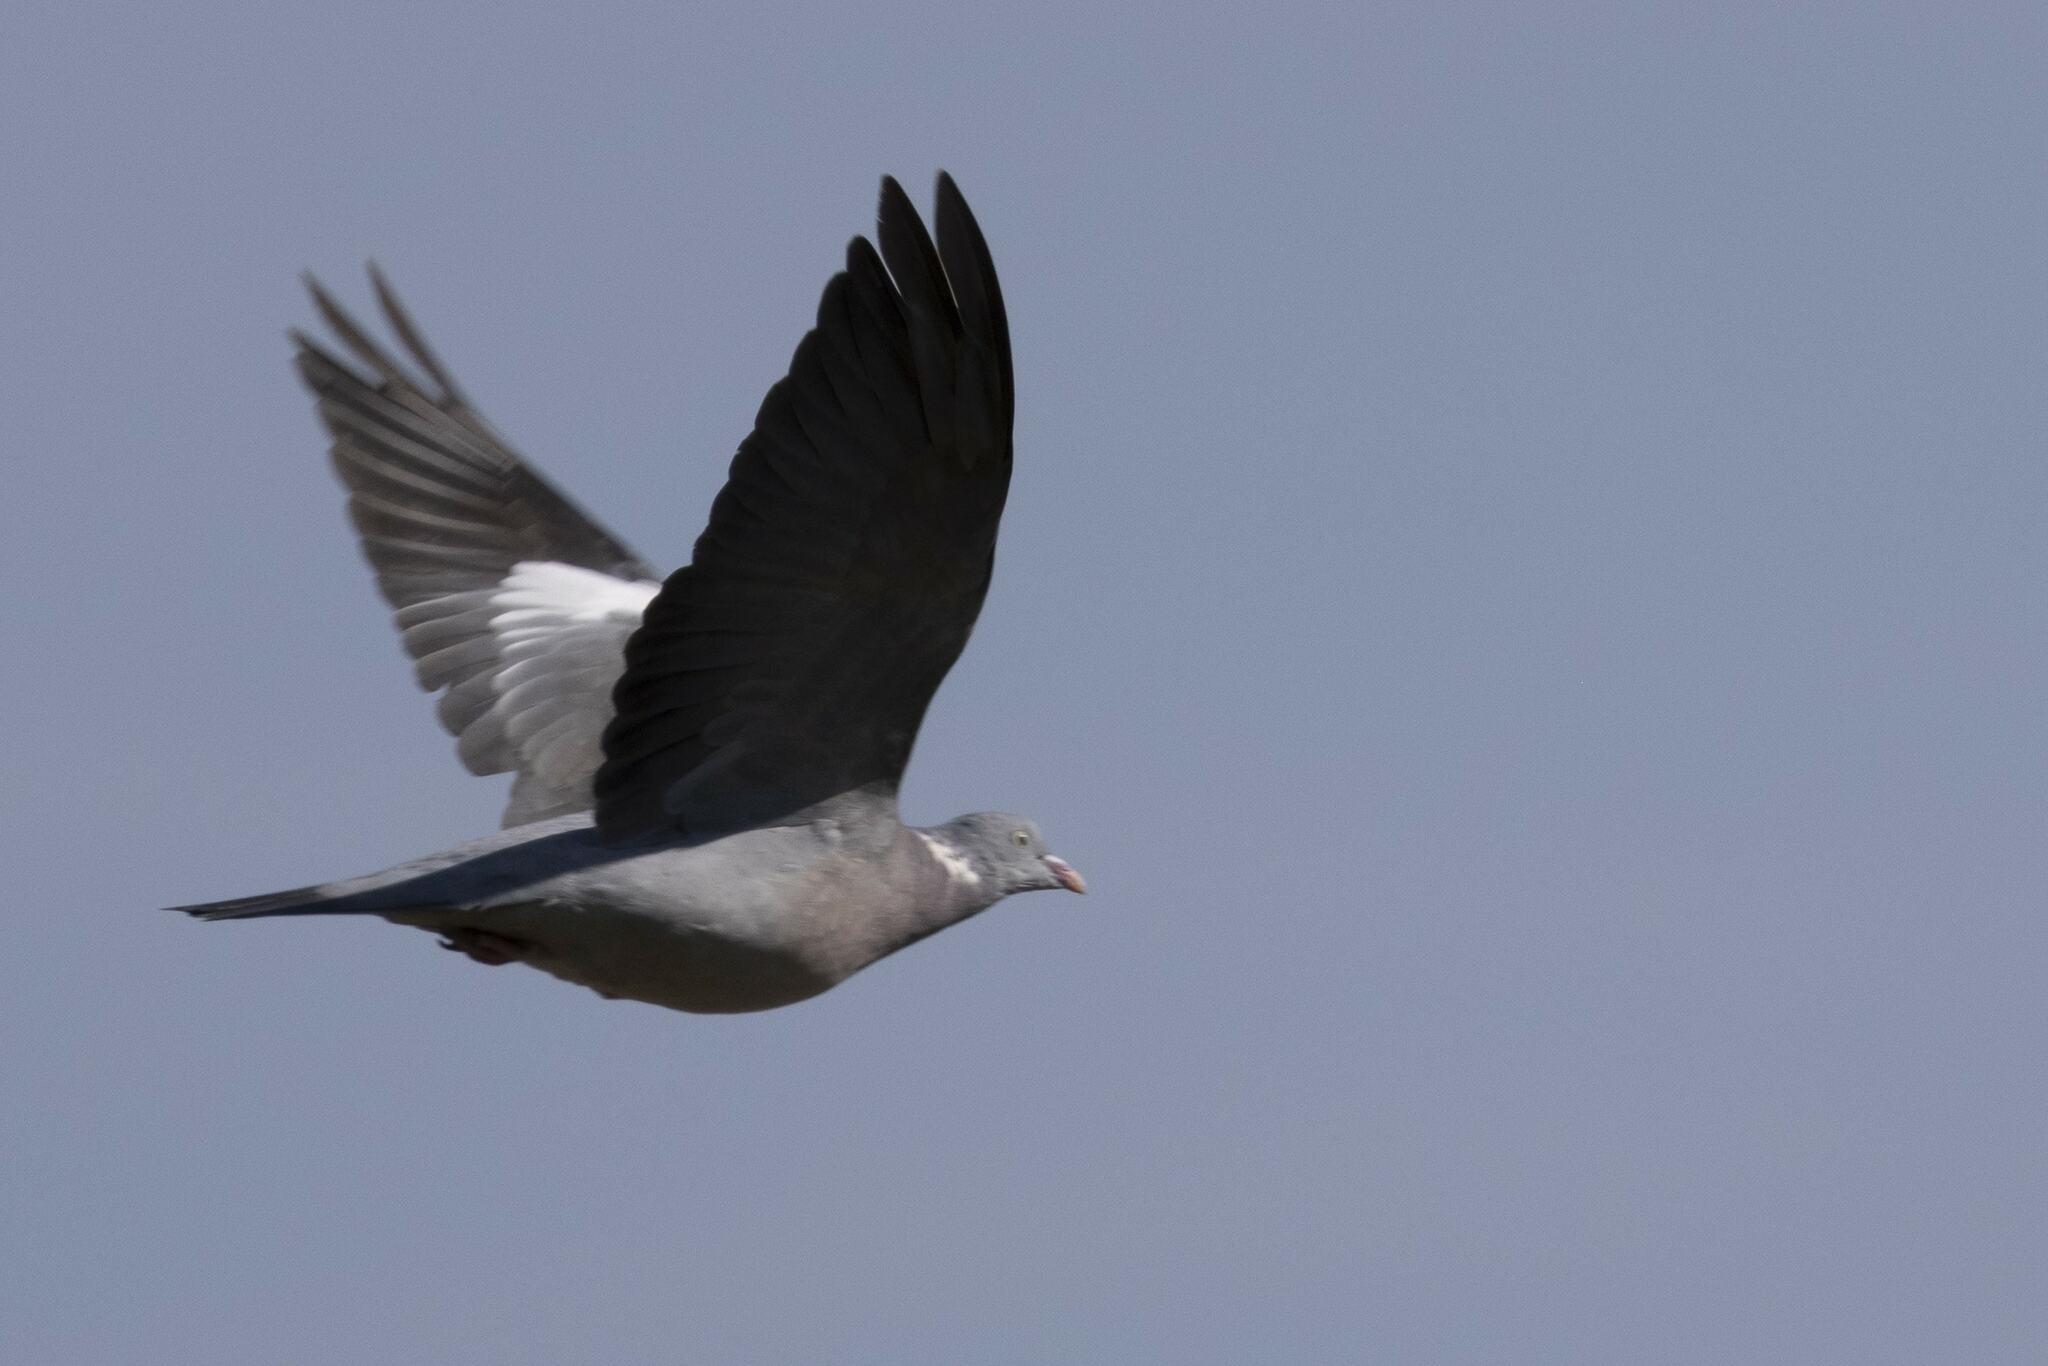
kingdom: Animalia
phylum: Chordata
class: Aves
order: Columbiformes
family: Columbidae
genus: Columba
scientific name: Columba palumbus
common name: Common wood pigeon
